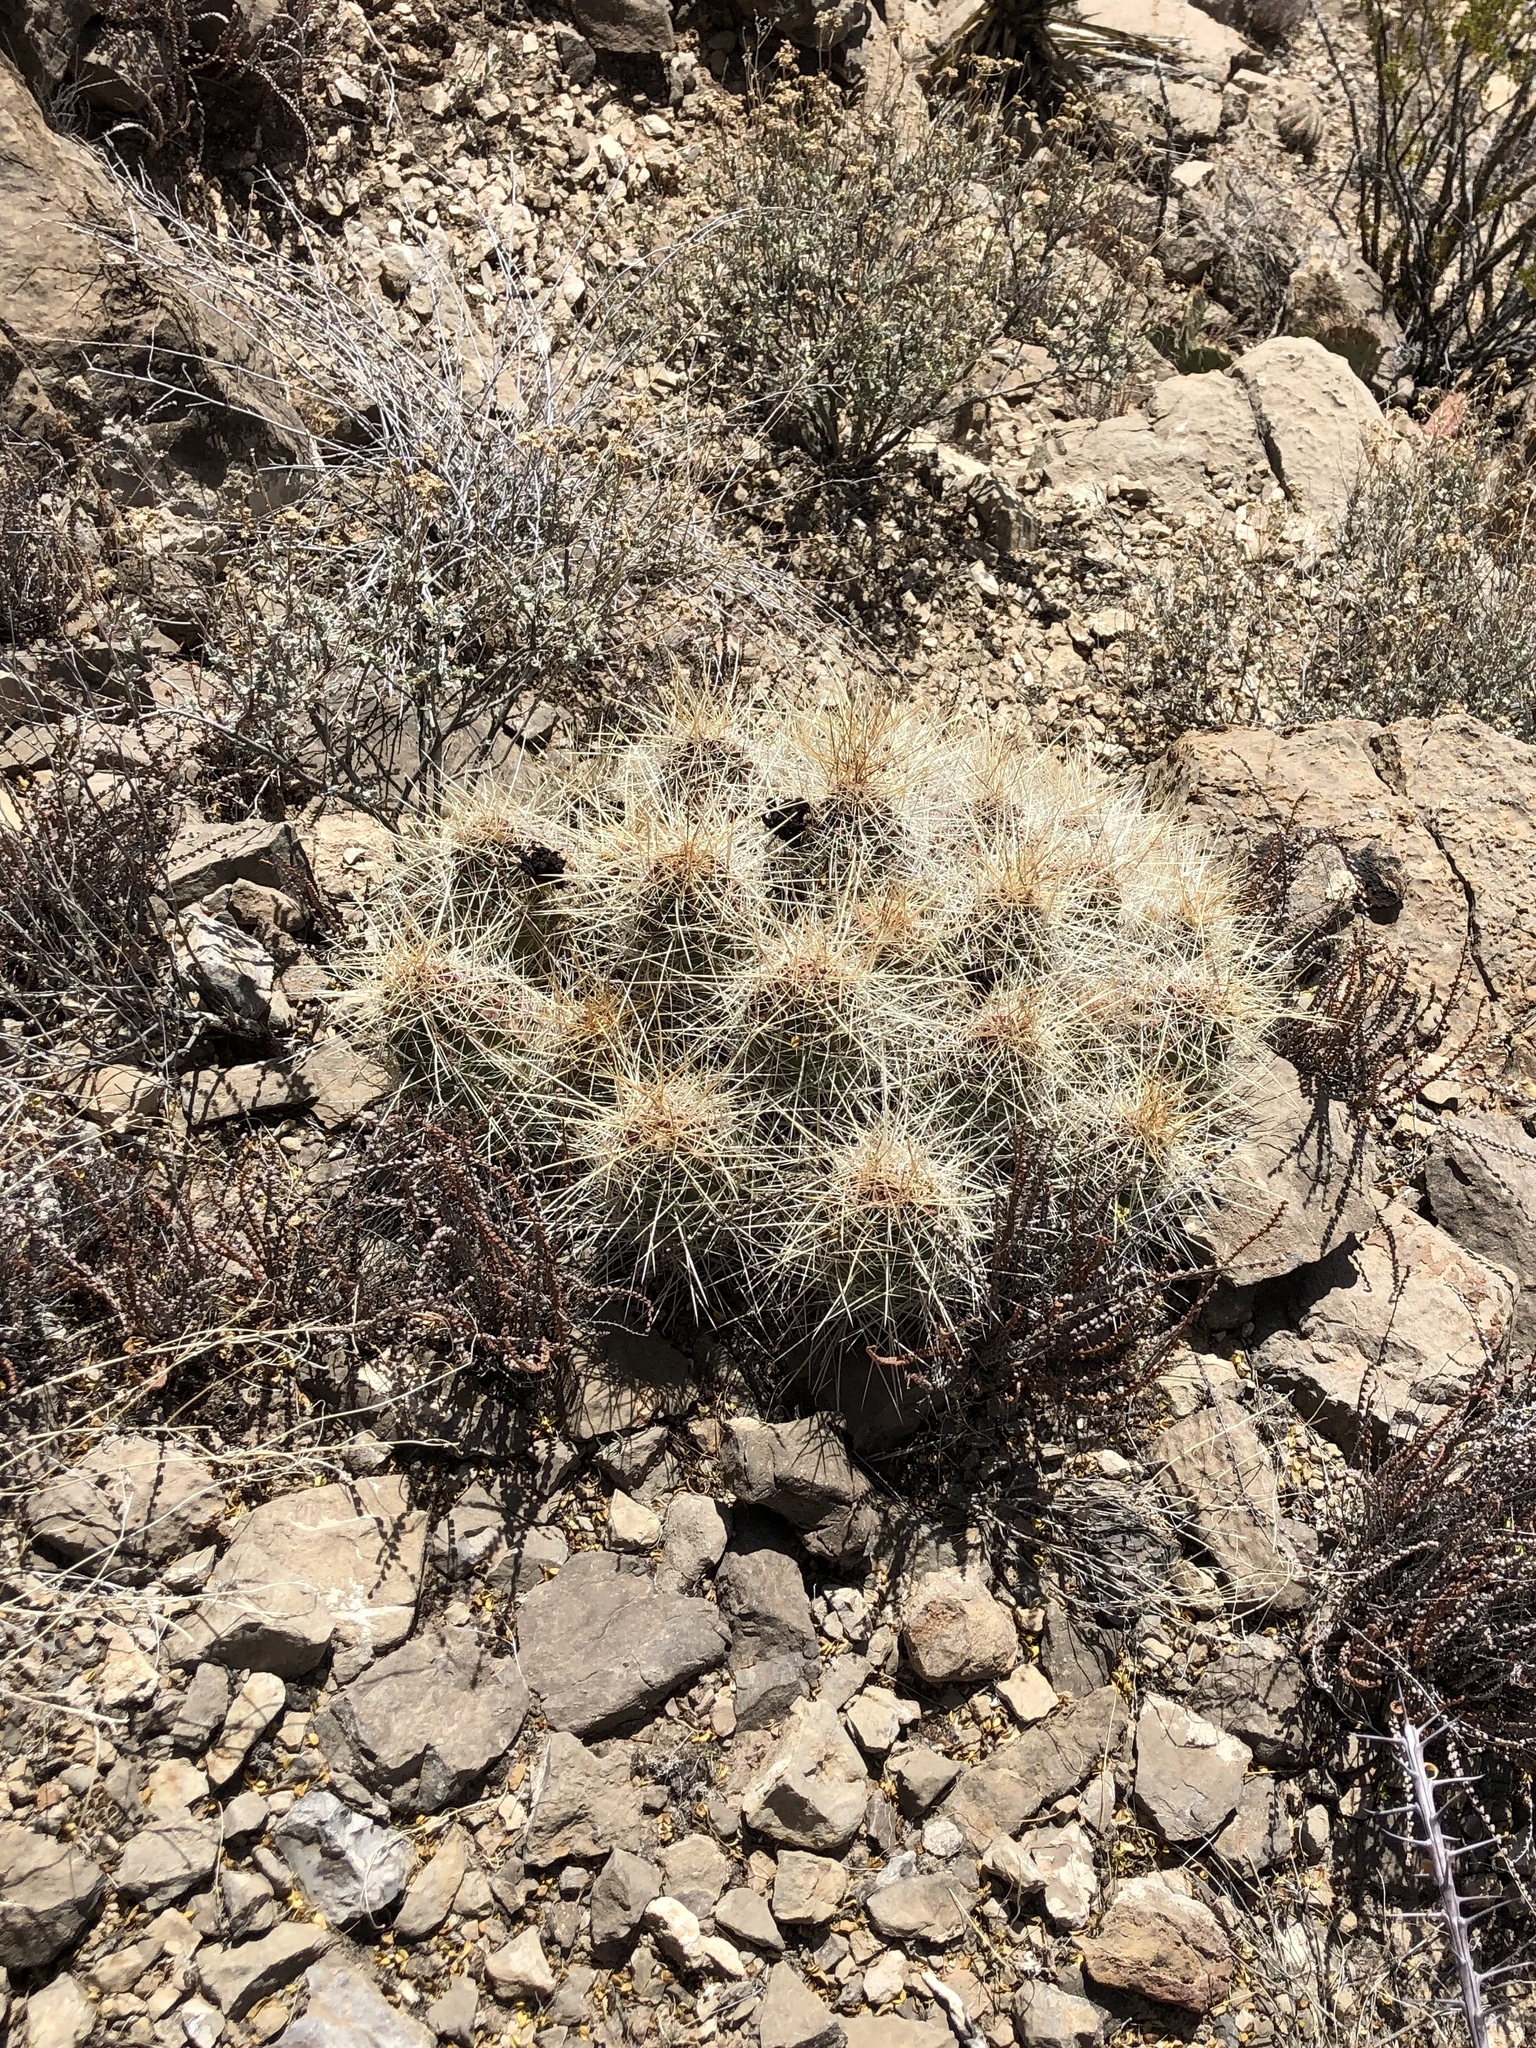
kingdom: Plantae
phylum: Tracheophyta
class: Magnoliopsida
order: Caryophyllales
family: Cactaceae
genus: Echinocereus
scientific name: Echinocereus stramineus
